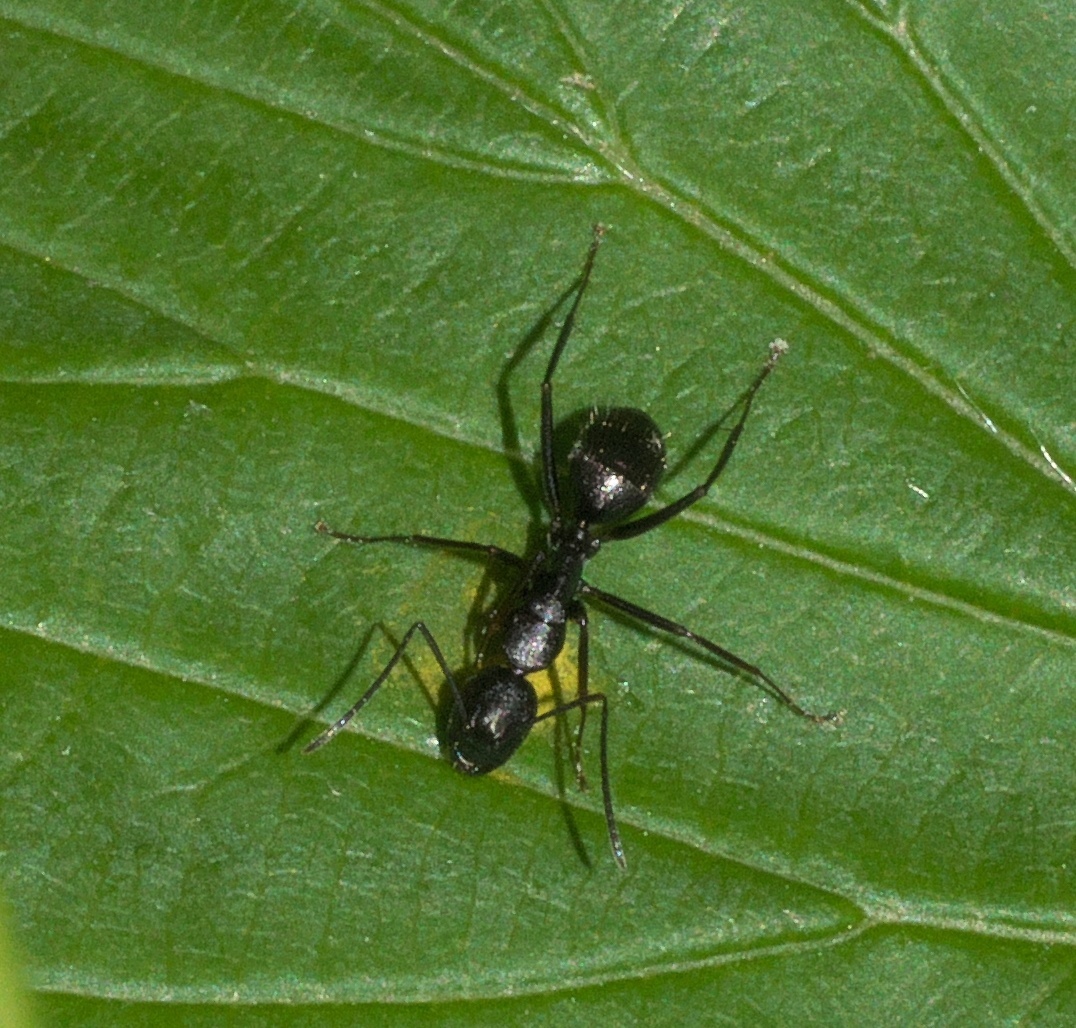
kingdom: Animalia
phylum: Arthropoda
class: Insecta
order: Hymenoptera
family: Formicidae
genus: Camponotus
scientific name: Camponotus pennsylvanicus
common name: Black carpenter ant
